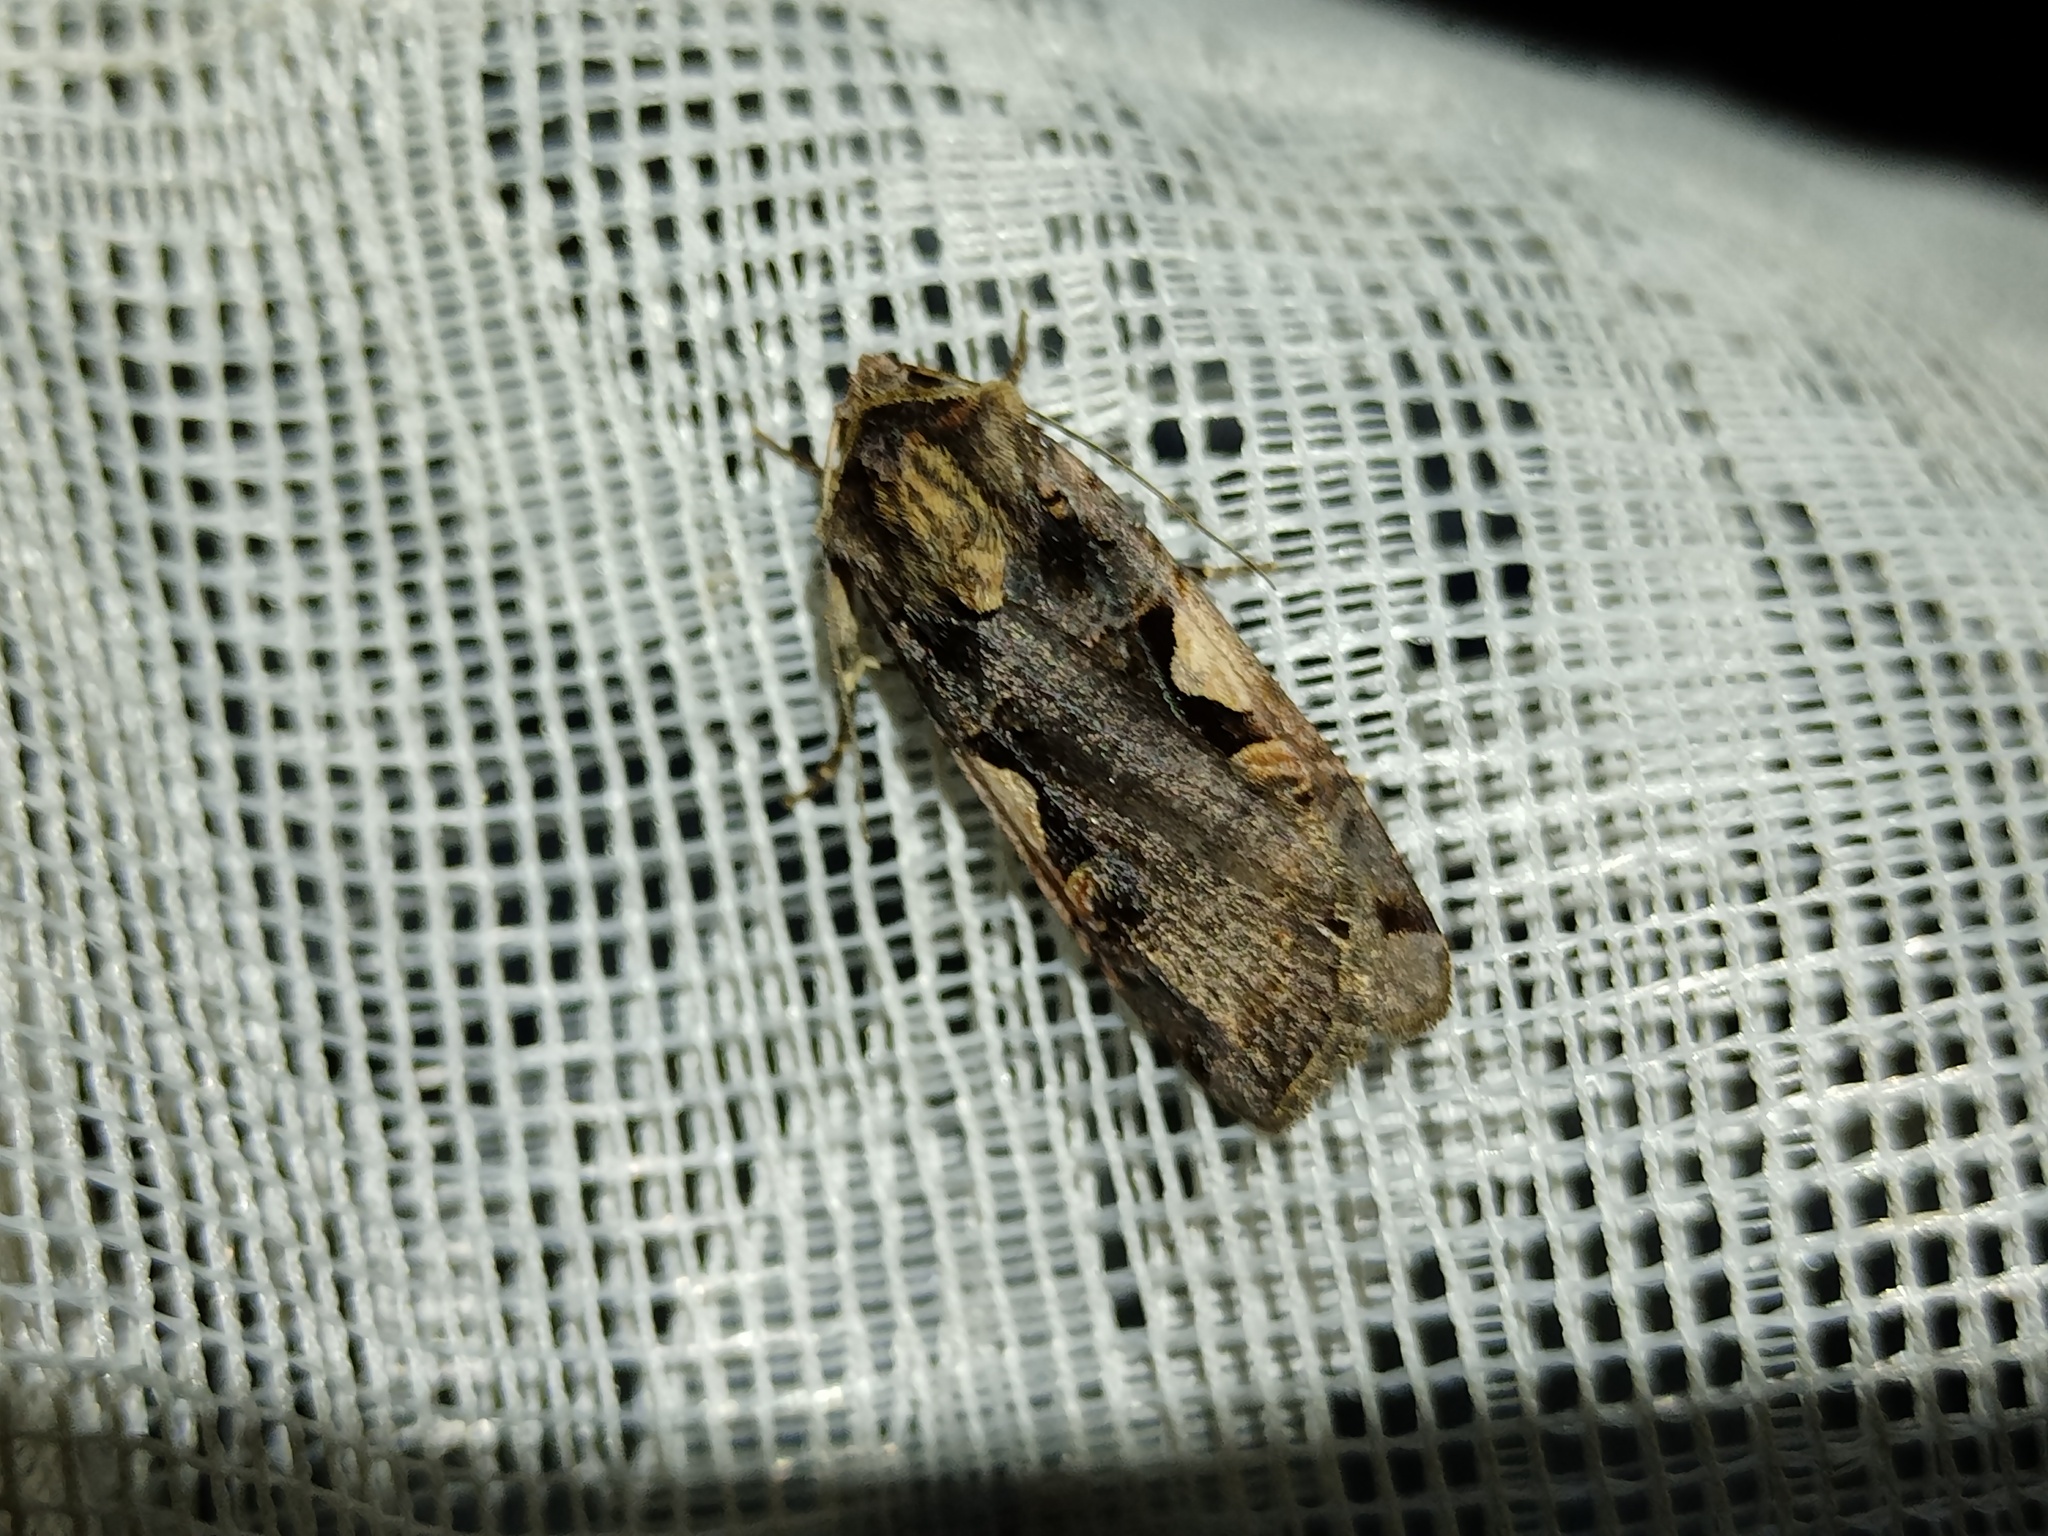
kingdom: Animalia
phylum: Arthropoda
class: Insecta
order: Lepidoptera
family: Noctuidae
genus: Xestia
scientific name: Xestia c-nigrum
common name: Setaceous hebrew character
